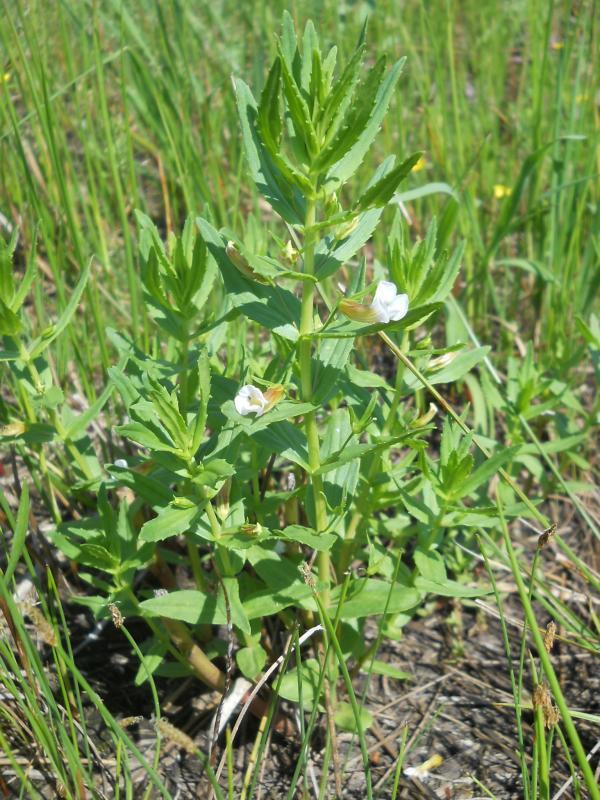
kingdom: Plantae
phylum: Tracheophyta
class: Magnoliopsida
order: Lamiales
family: Plantaginaceae
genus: Gratiola
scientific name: Gratiola officinalis
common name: Gratiola
